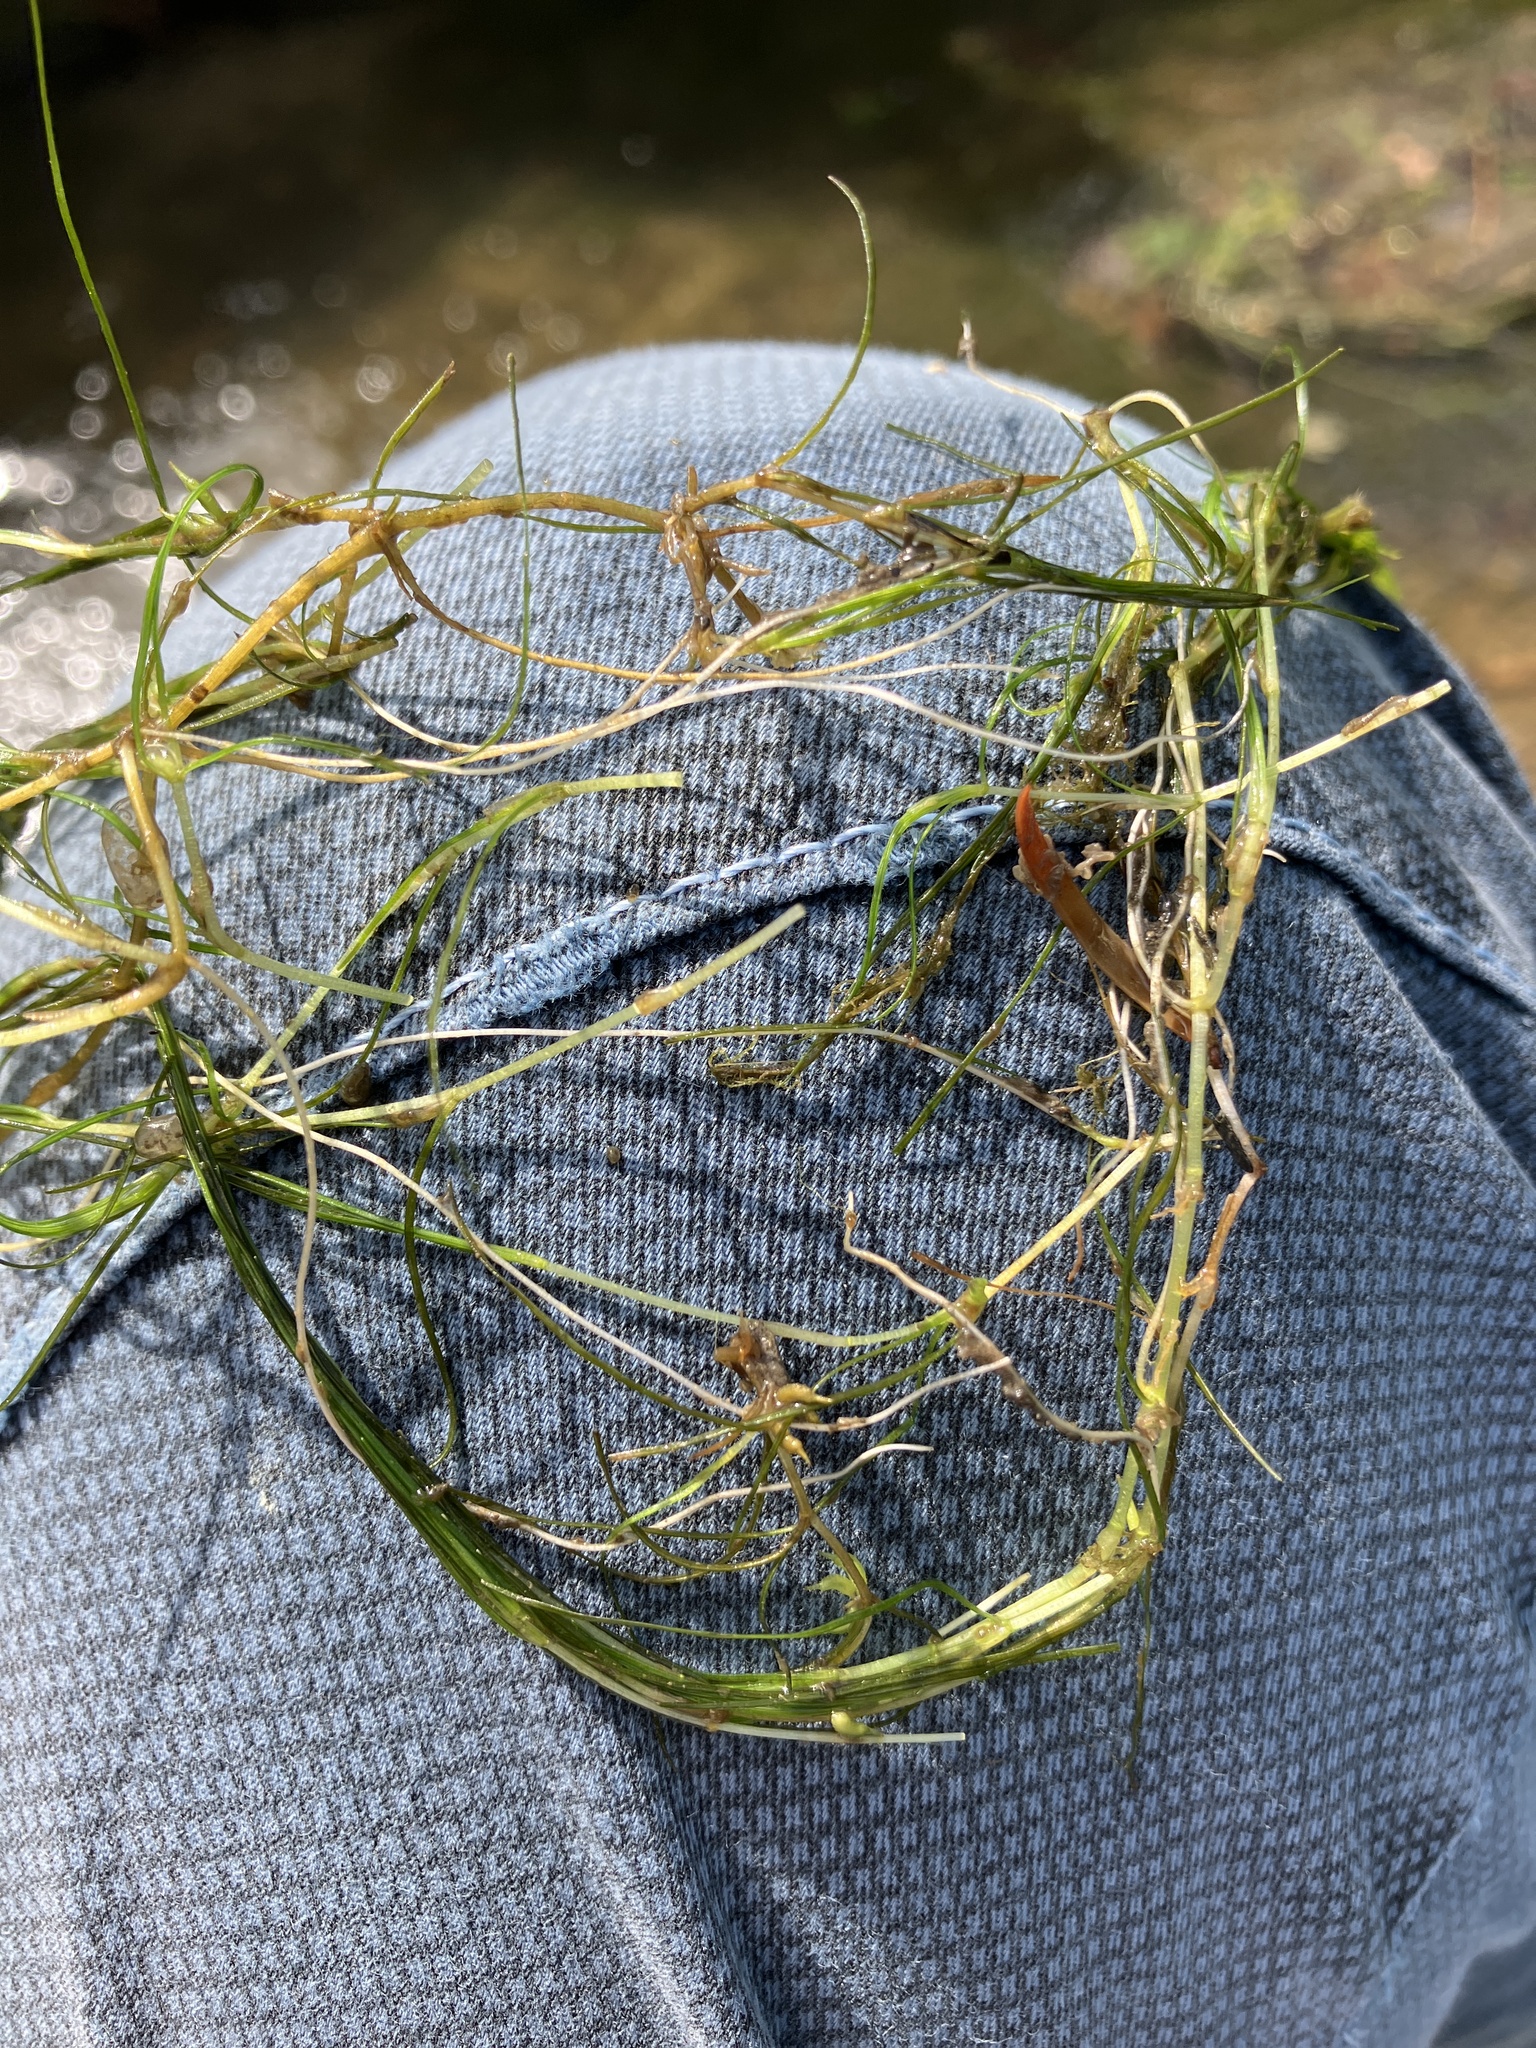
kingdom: Plantae
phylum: Tracheophyta
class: Liliopsida
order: Alismatales
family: Potamogetonaceae
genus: Zannichellia
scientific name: Zannichellia palustris
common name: Horned pondweed
